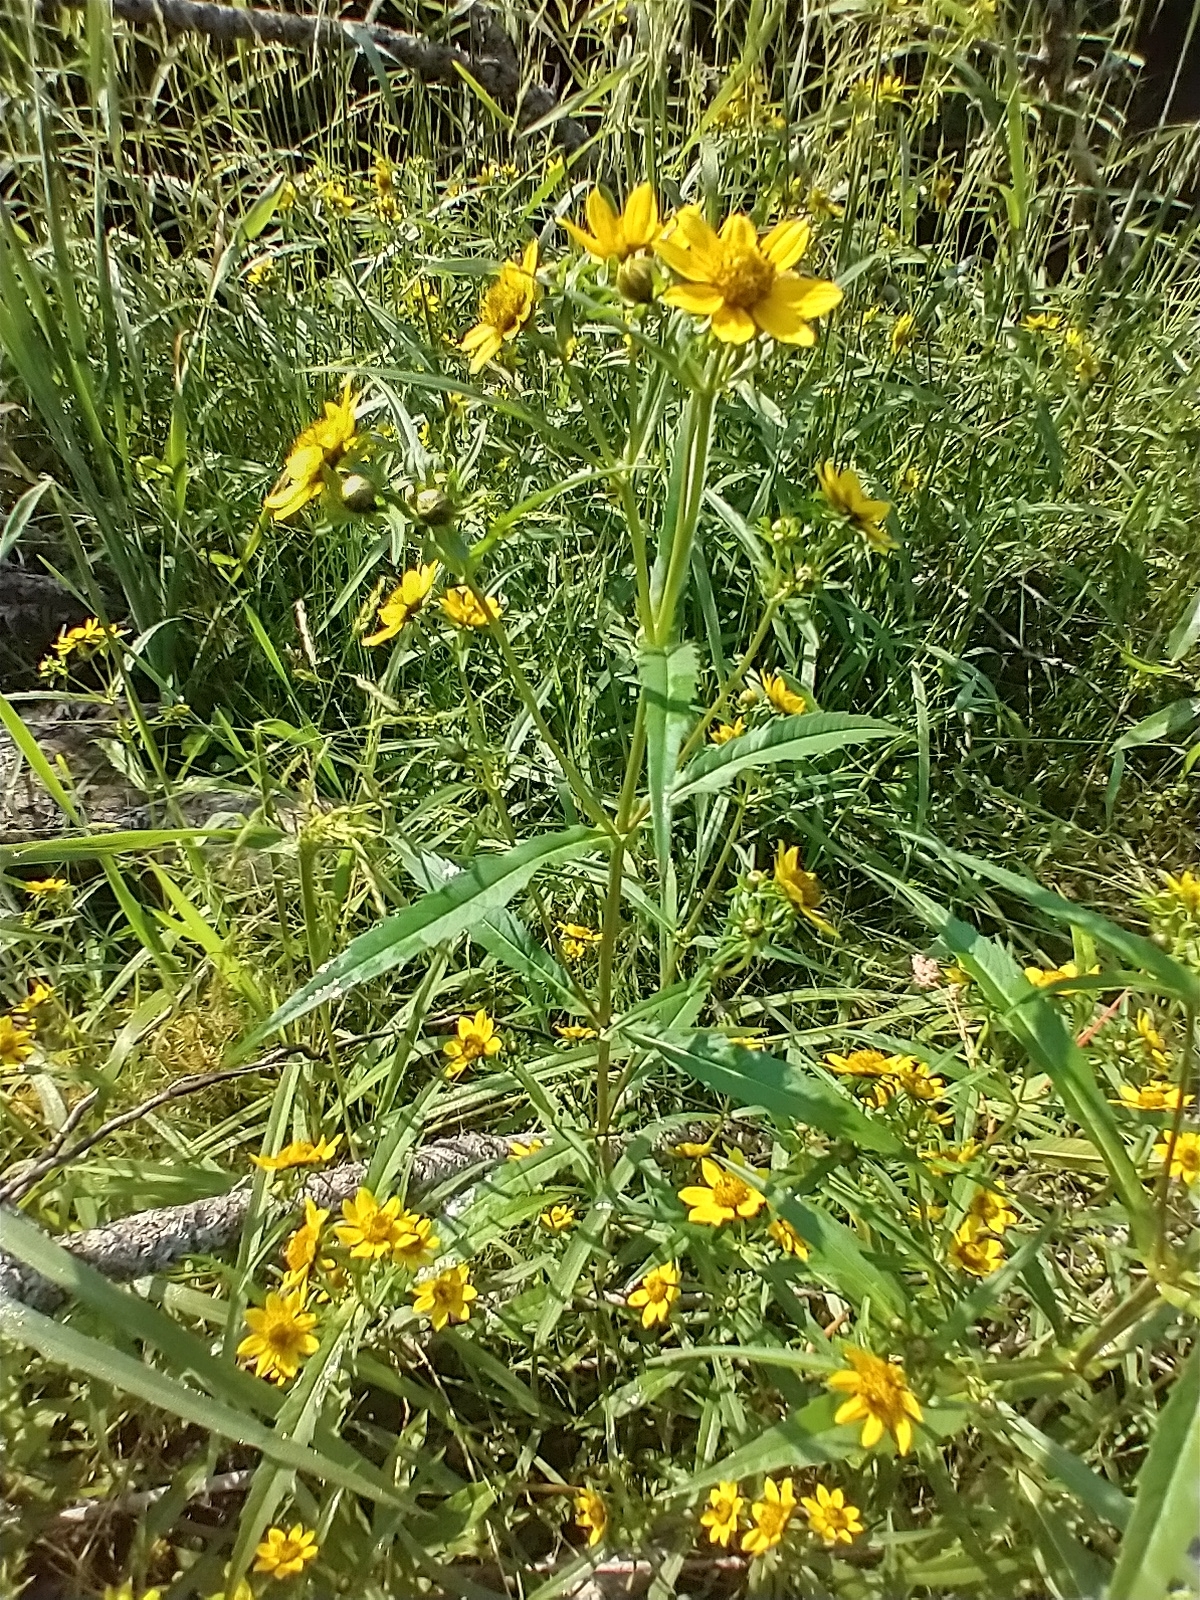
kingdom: Plantae
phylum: Tracheophyta
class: Magnoliopsida
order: Asterales
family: Asteraceae
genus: Bidens
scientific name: Bidens cernua
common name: Nodding bur-marigold
